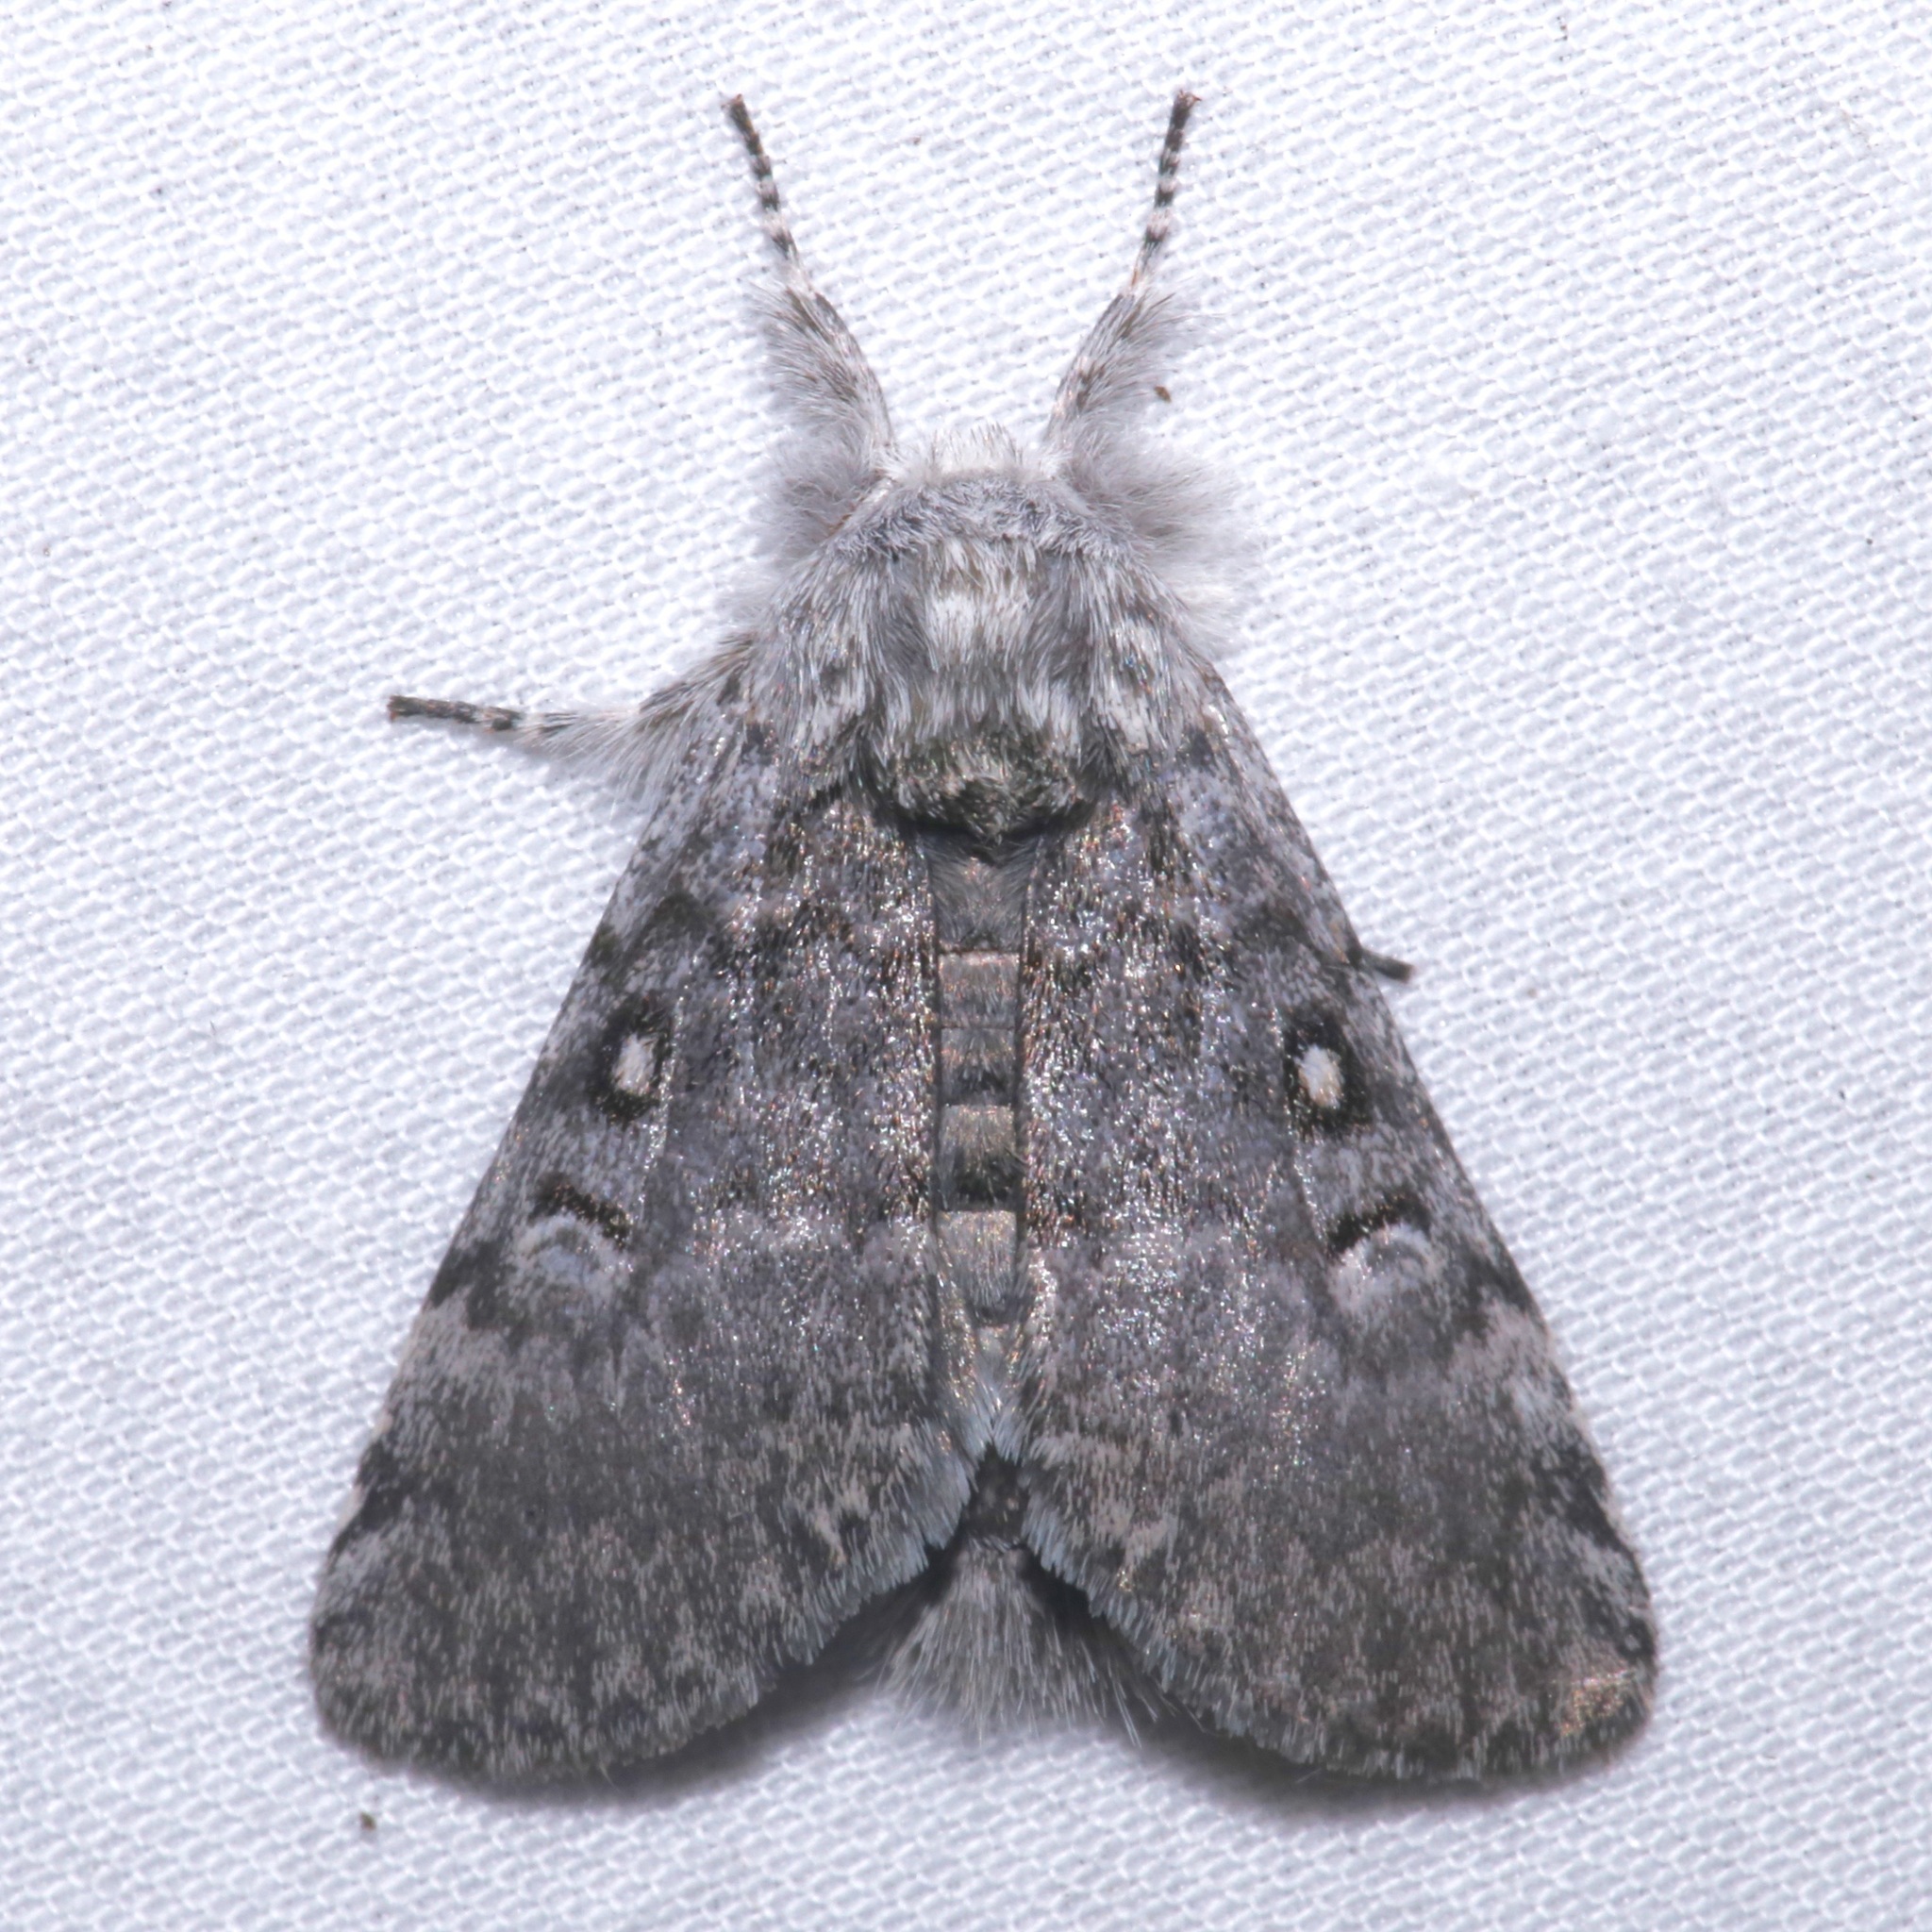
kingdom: Animalia
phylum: Arthropoda
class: Insecta
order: Lepidoptera
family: Noctuidae
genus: Colocasia
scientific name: Colocasia propinquilinea
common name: Close-banded demas
